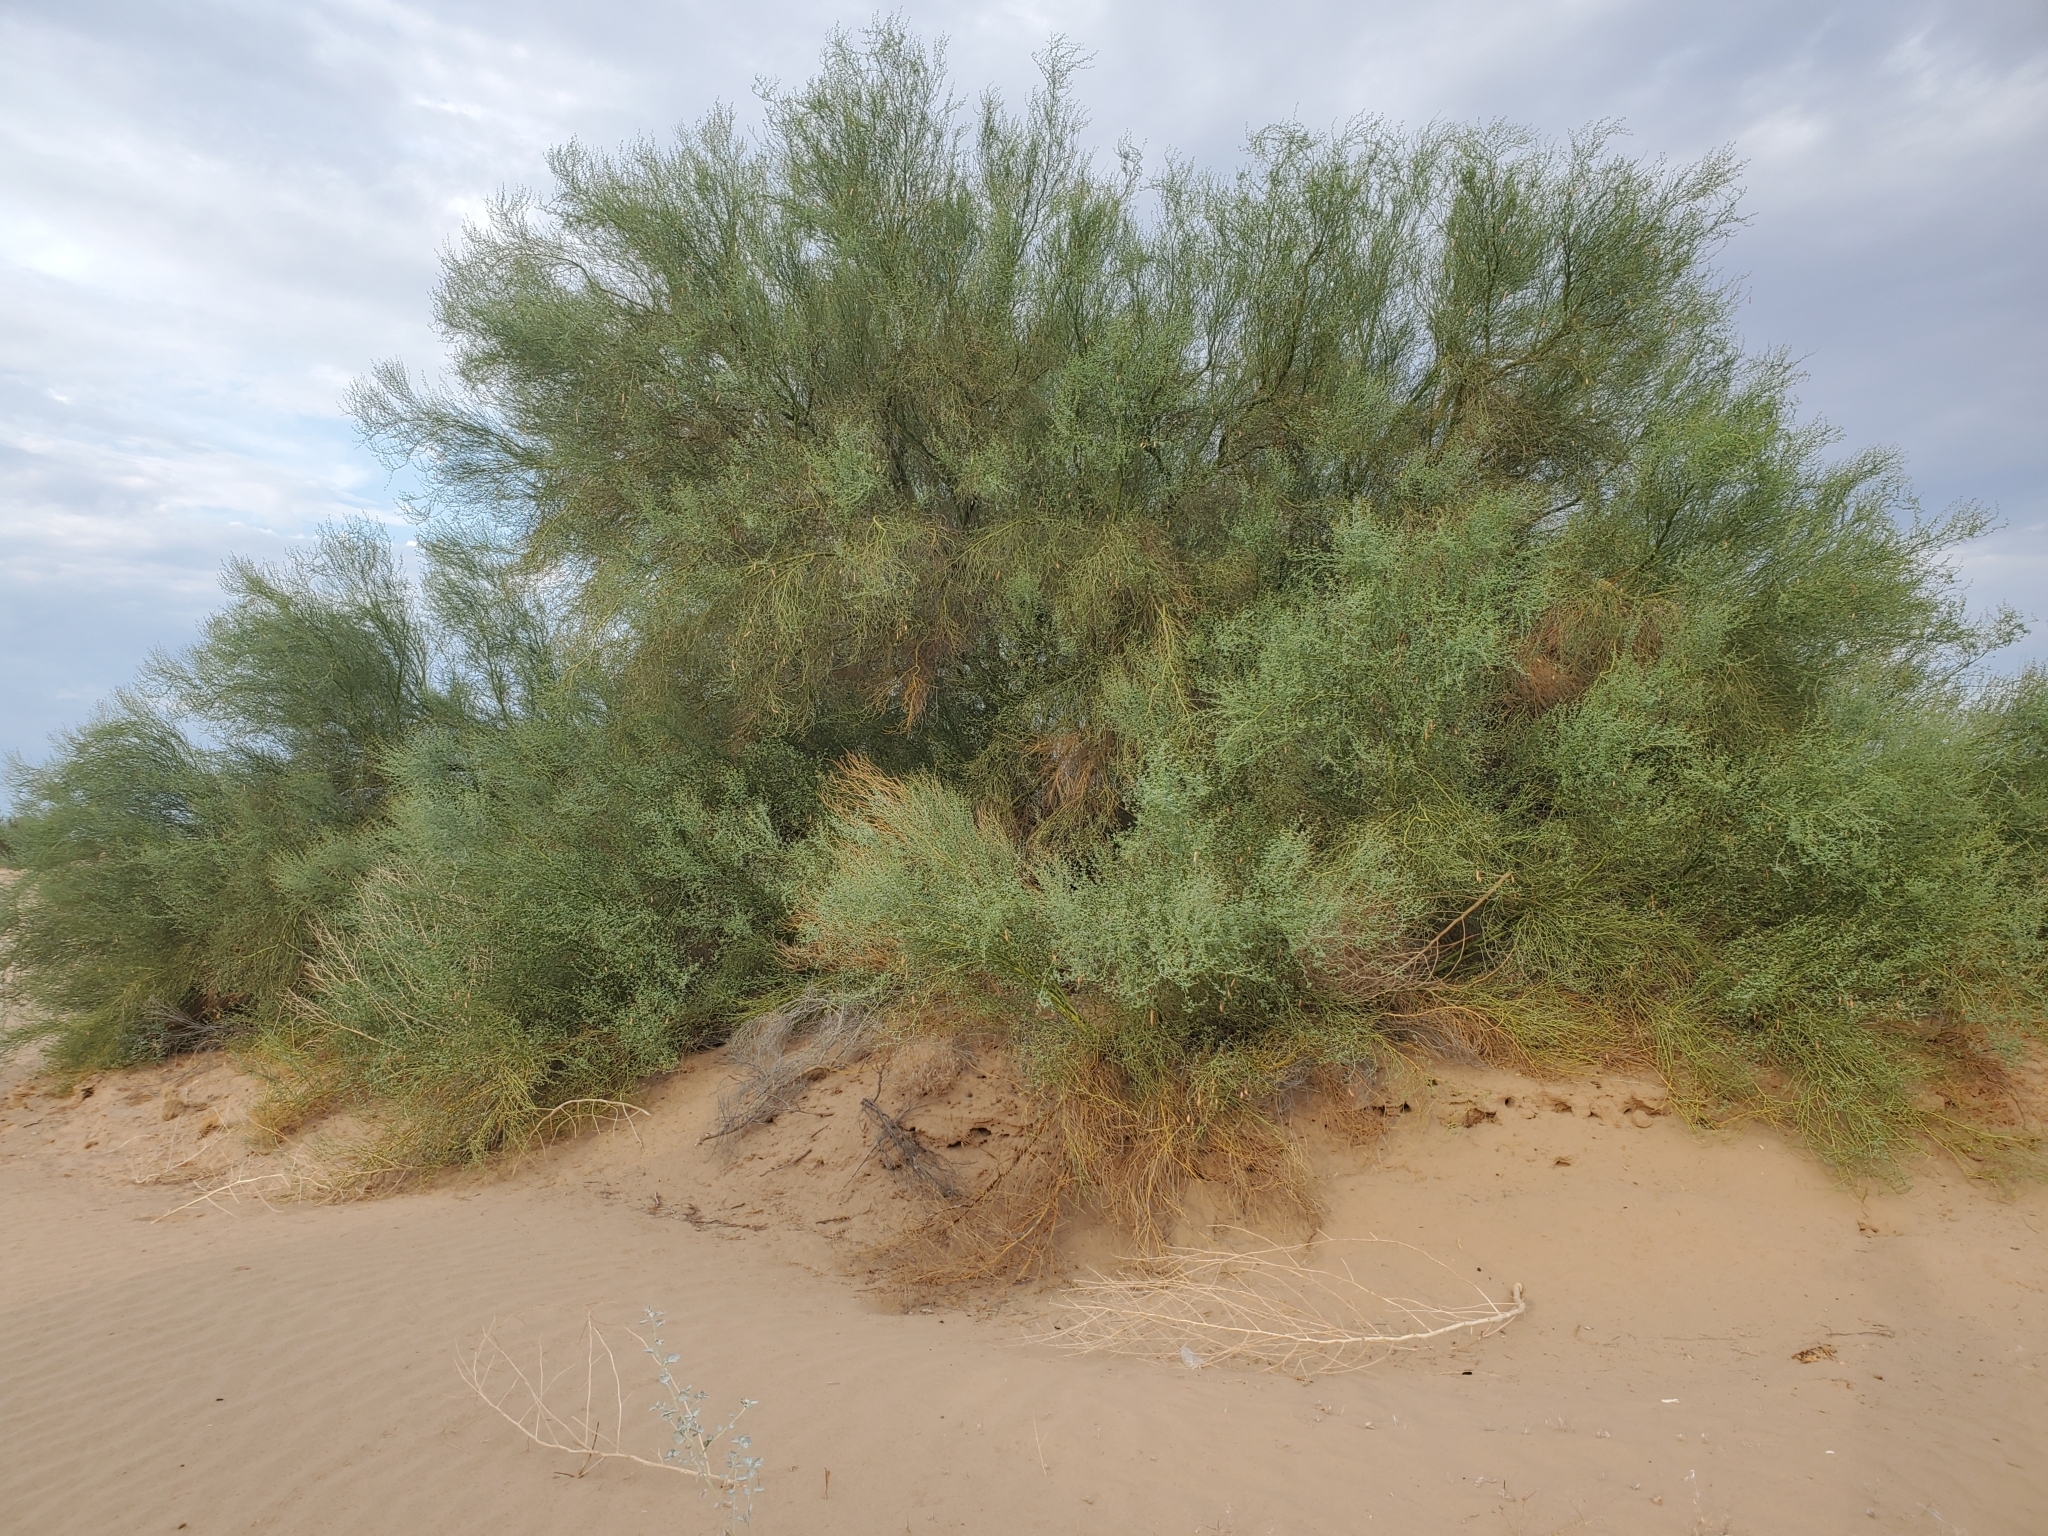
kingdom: Plantae
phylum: Tracheophyta
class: Magnoliopsida
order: Fabales
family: Fabaceae
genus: Parkinsonia
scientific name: Parkinsonia florida
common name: Blue paloverde
